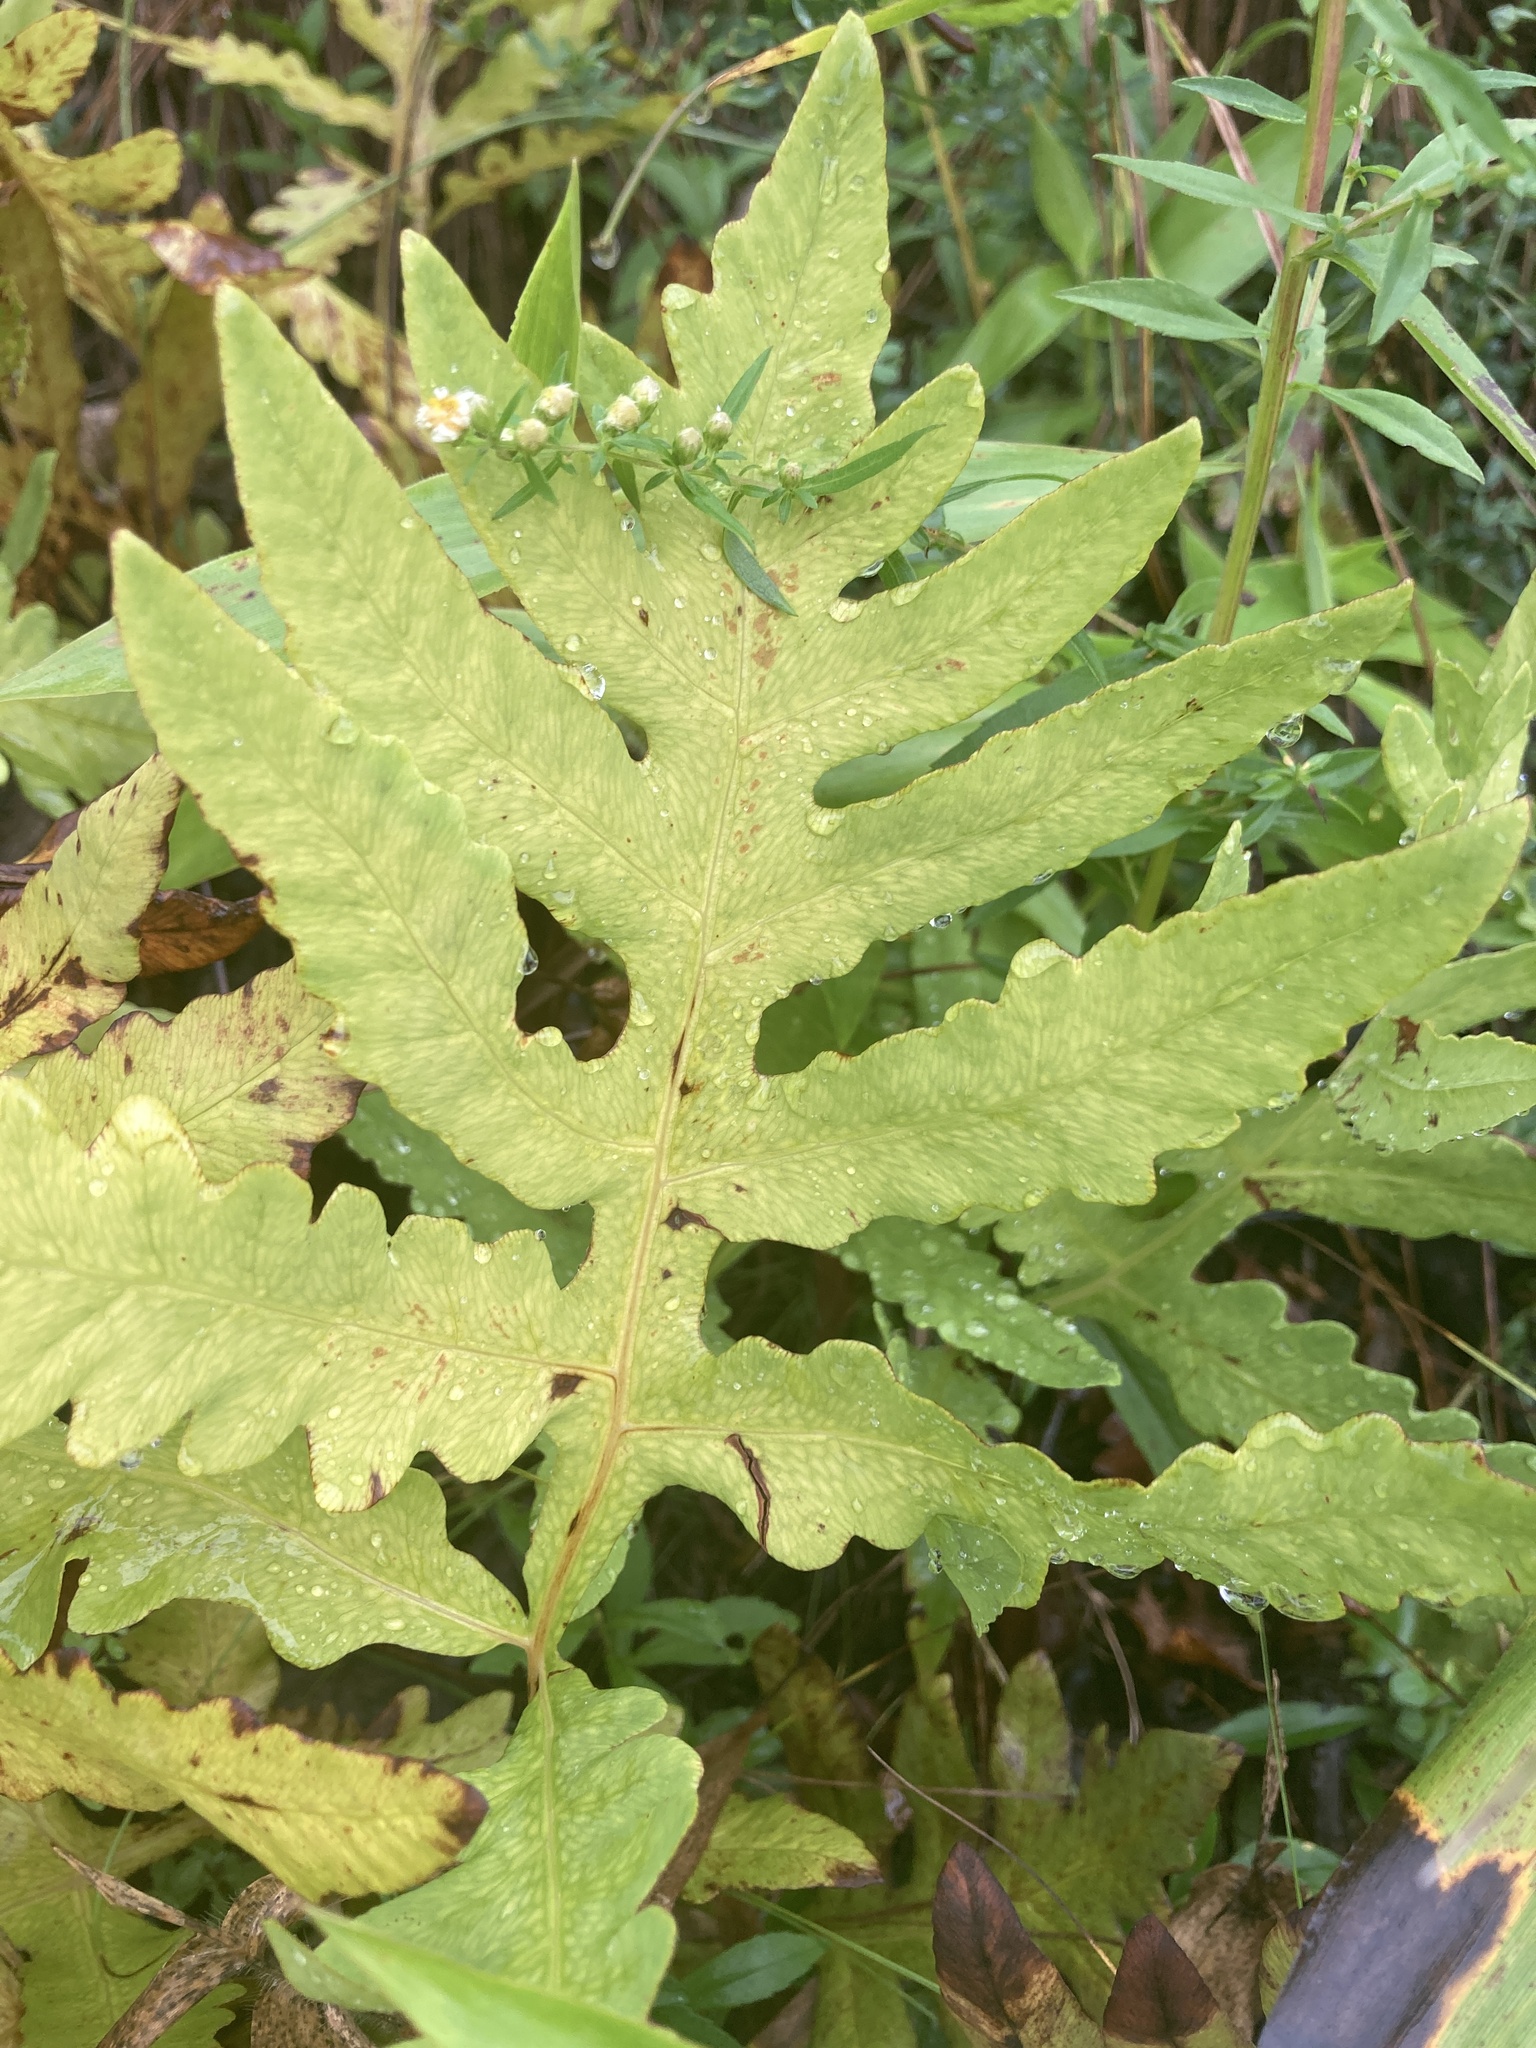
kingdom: Plantae
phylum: Tracheophyta
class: Polypodiopsida
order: Polypodiales
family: Onocleaceae
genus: Onoclea
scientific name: Onoclea sensibilis
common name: Sensitive fern
